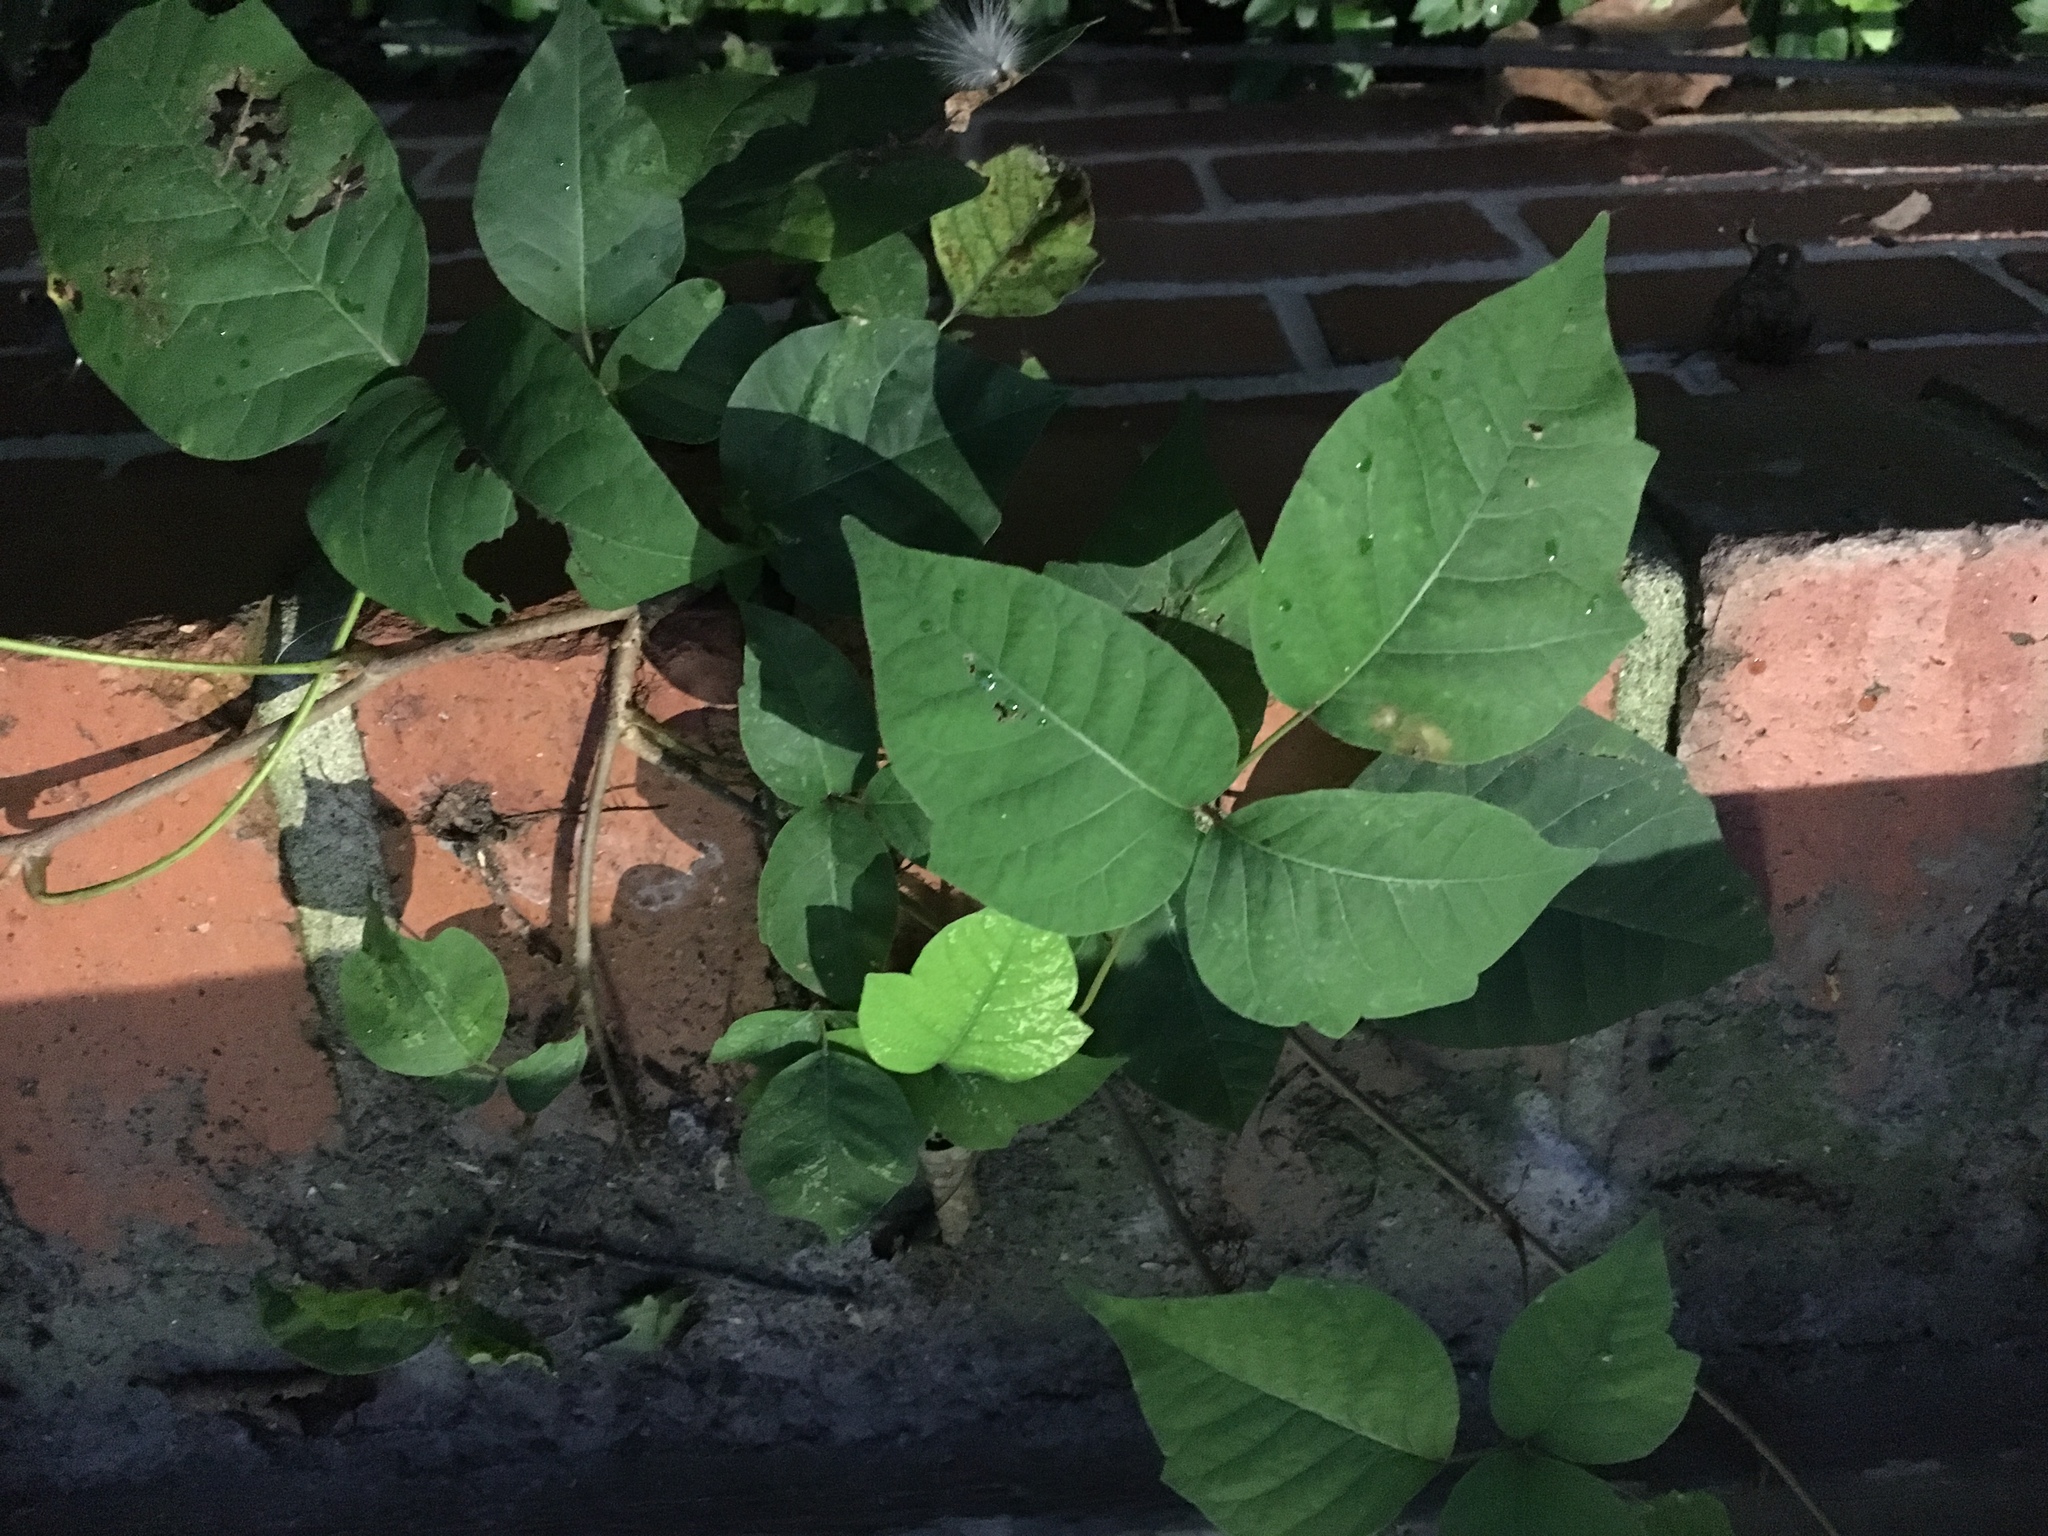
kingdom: Plantae
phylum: Tracheophyta
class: Magnoliopsida
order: Sapindales
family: Anacardiaceae
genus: Toxicodendron
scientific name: Toxicodendron radicans
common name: Poison ivy
